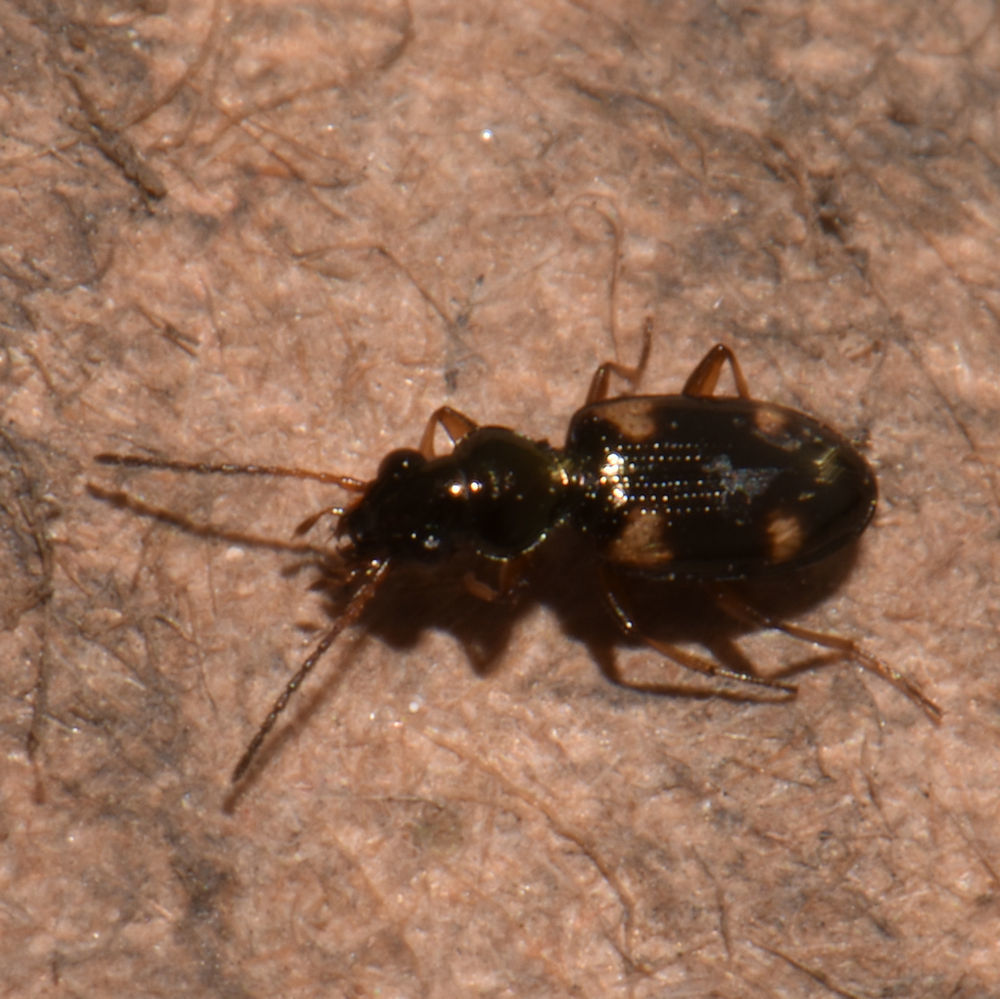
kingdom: Animalia
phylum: Arthropoda
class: Insecta
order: Coleoptera
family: Carabidae
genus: Bembidion
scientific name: Bembidion quadrimaculatum
